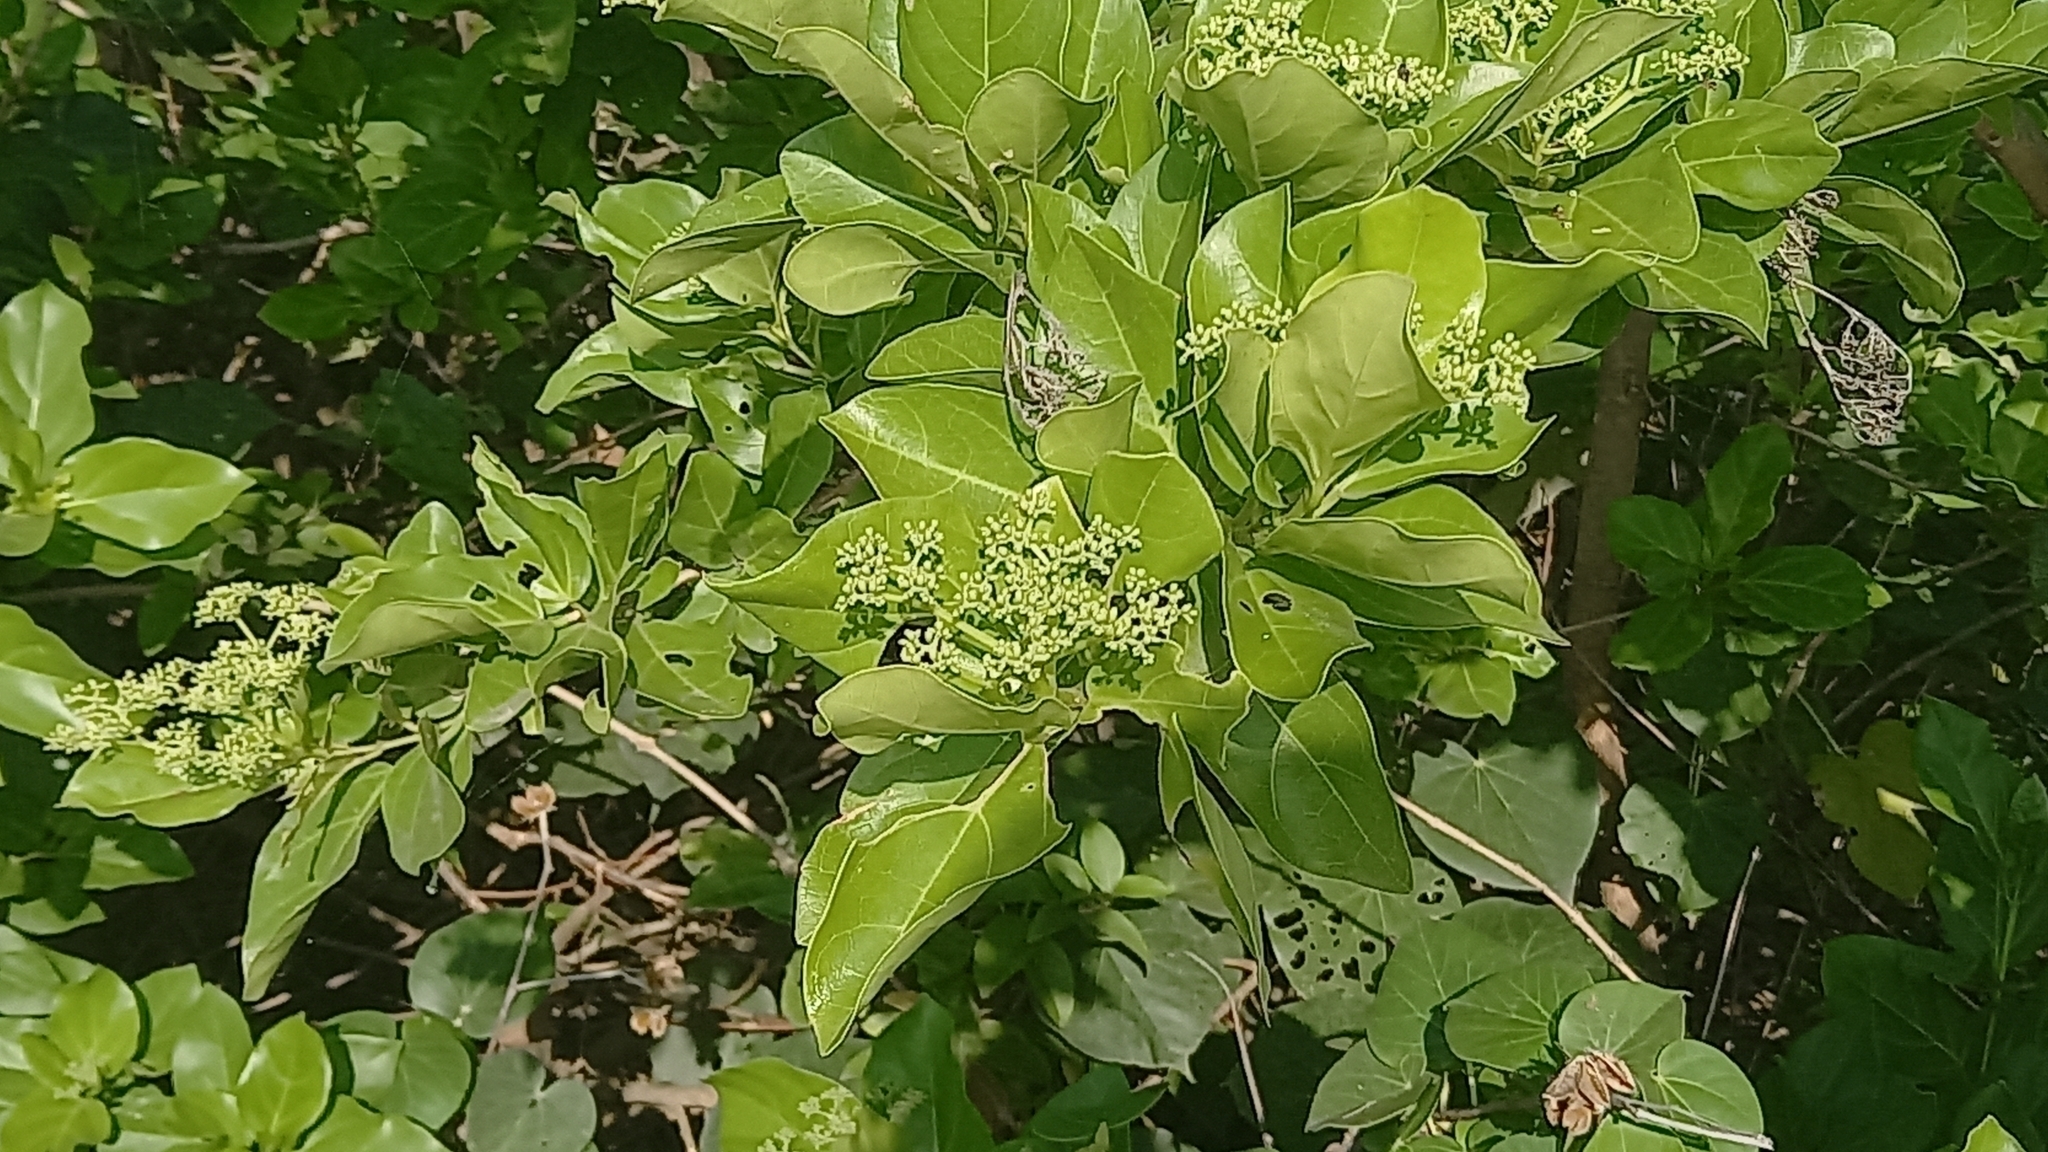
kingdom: Plantae
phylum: Tracheophyta
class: Magnoliopsida
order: Lamiales
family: Lamiaceae
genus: Premna
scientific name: Premna serratifolia
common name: Bastard guelder
